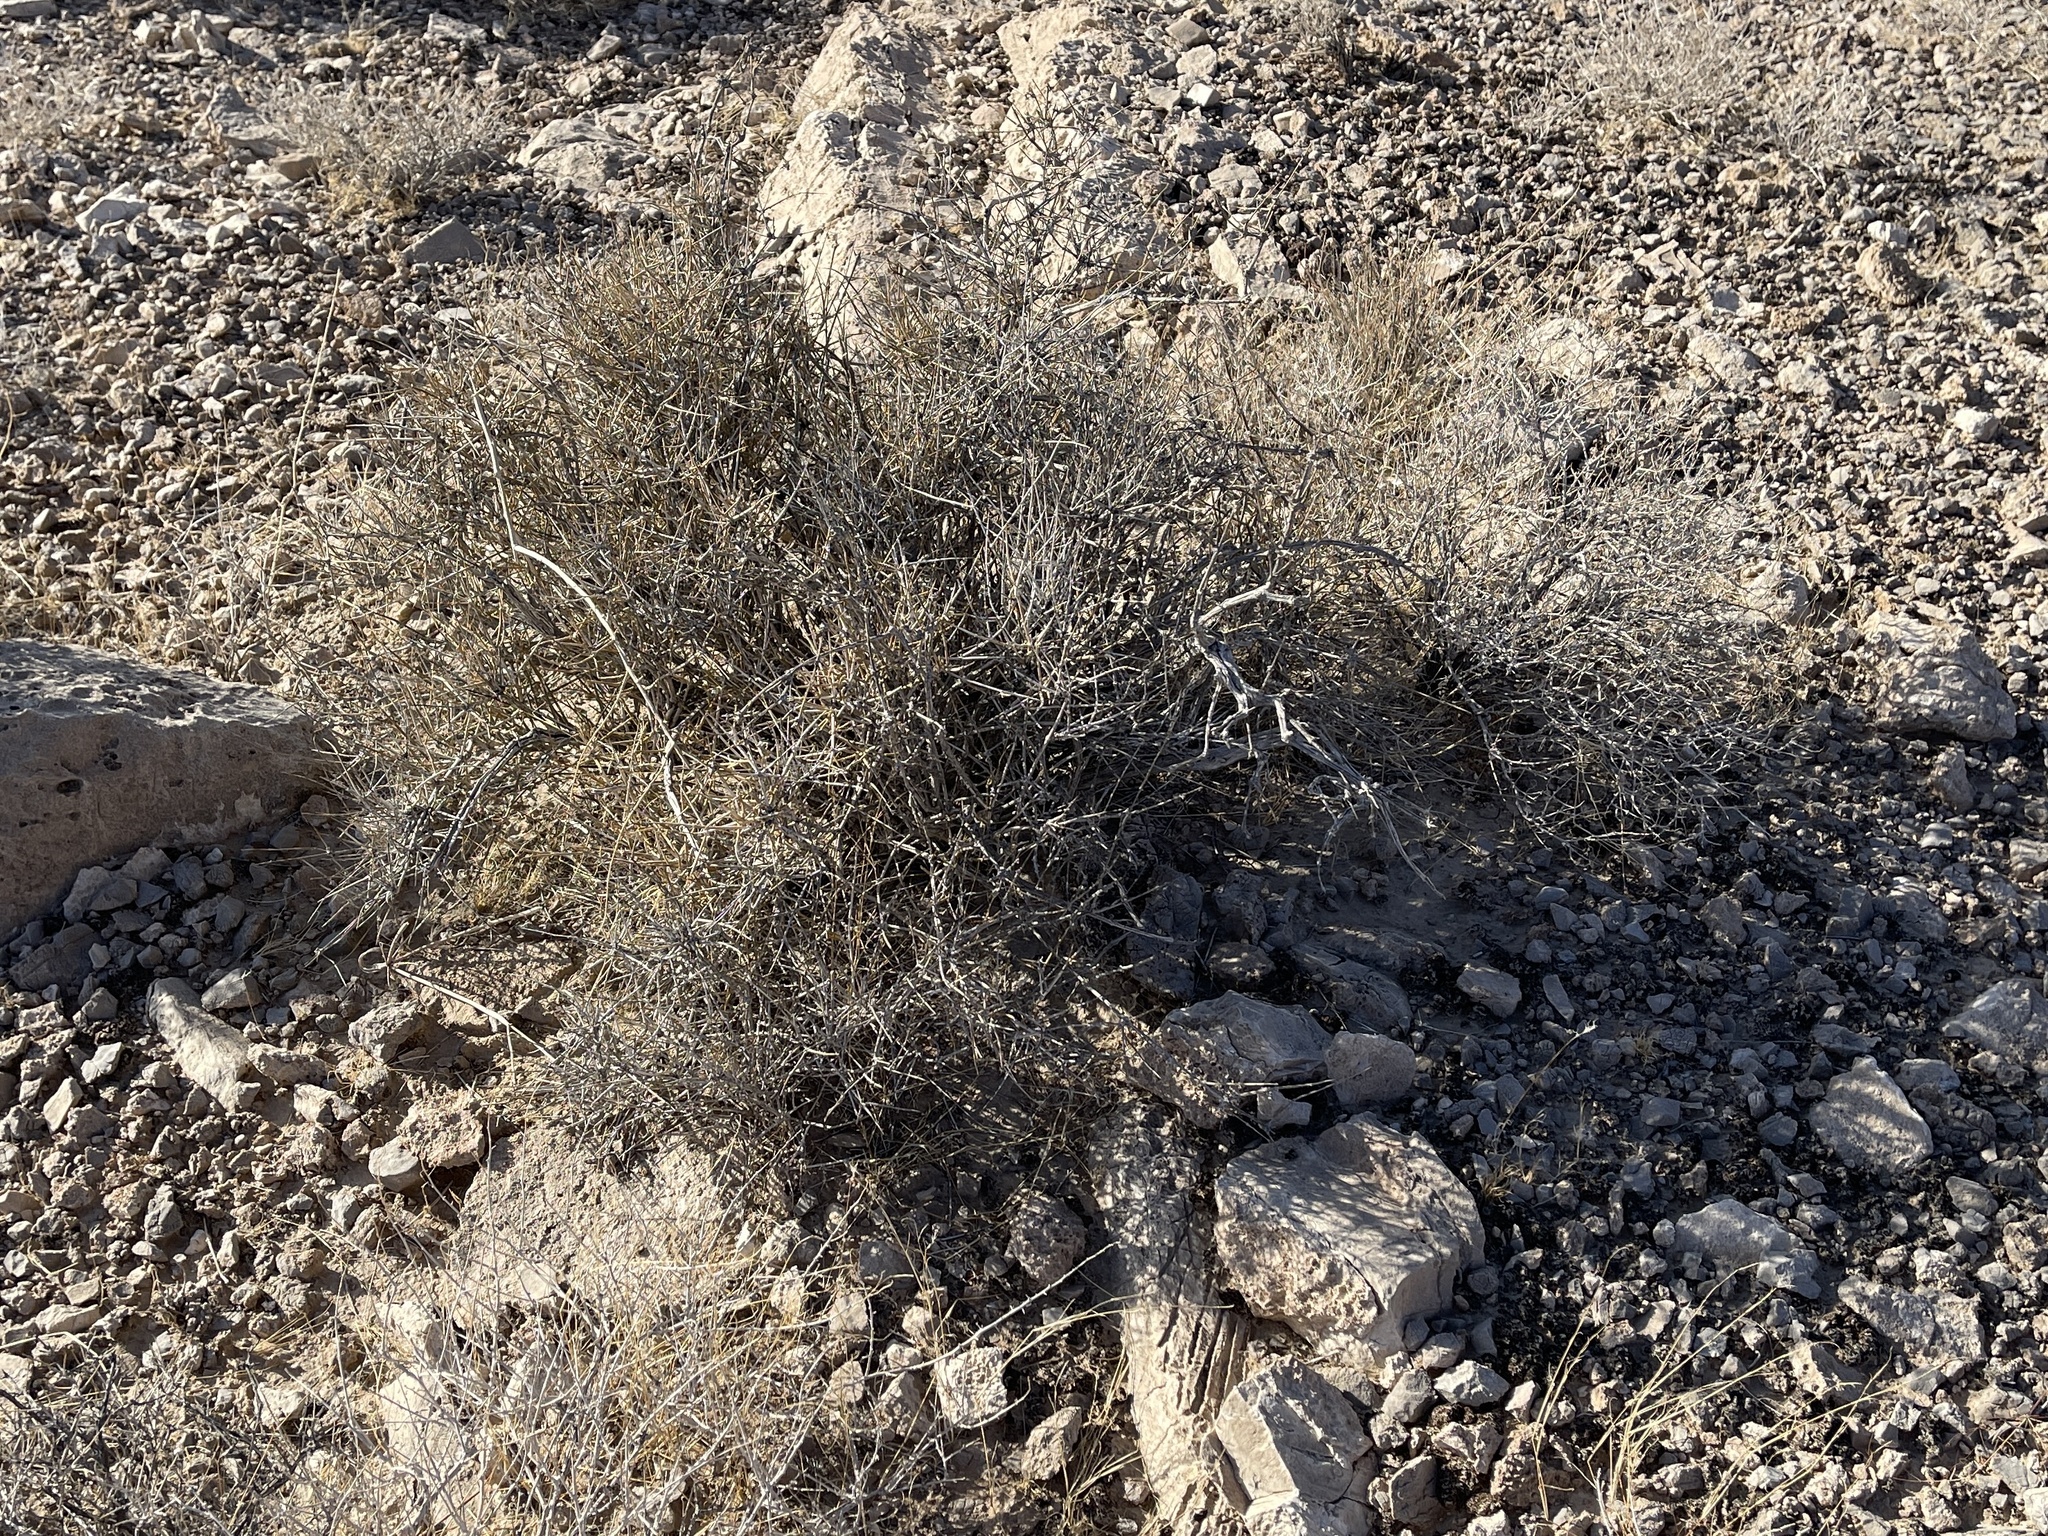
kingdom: Plantae
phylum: Tracheophyta
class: Gnetopsida
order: Ephedrales
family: Ephedraceae
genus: Ephedra
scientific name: Ephedra nevadensis
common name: Gray ephedra
